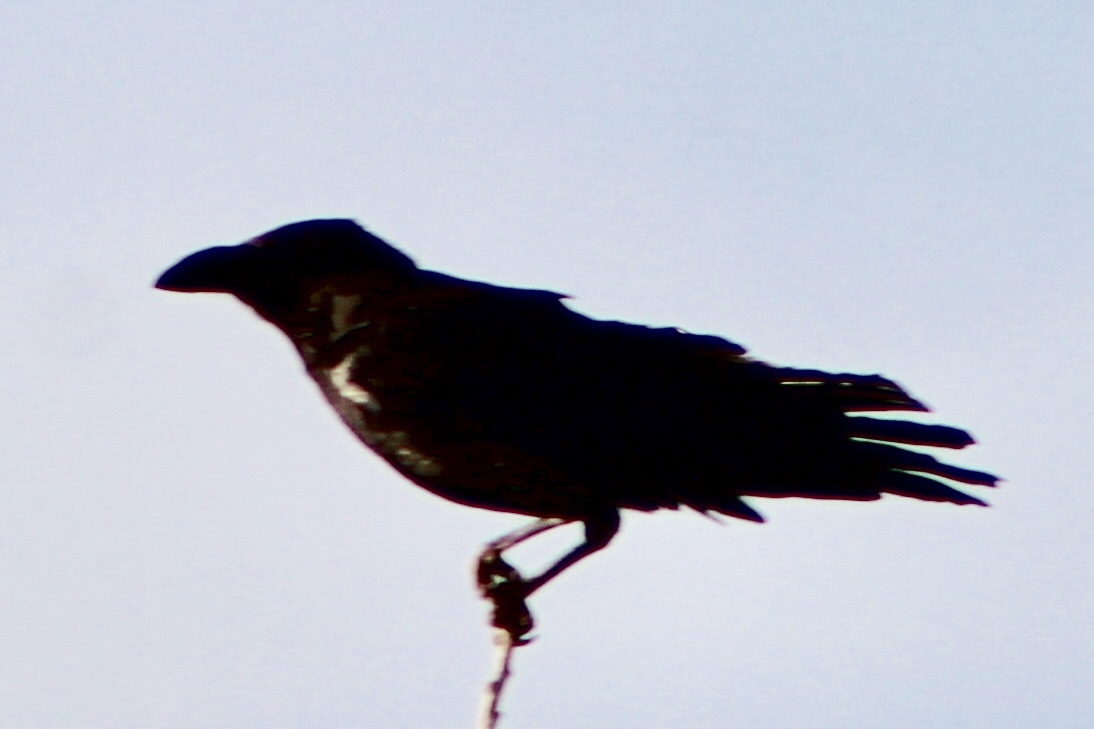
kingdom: Animalia
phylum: Chordata
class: Aves
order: Passeriformes
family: Corvidae
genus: Corvus
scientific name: Corvus cryptoleucus
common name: Chihuahuan raven
